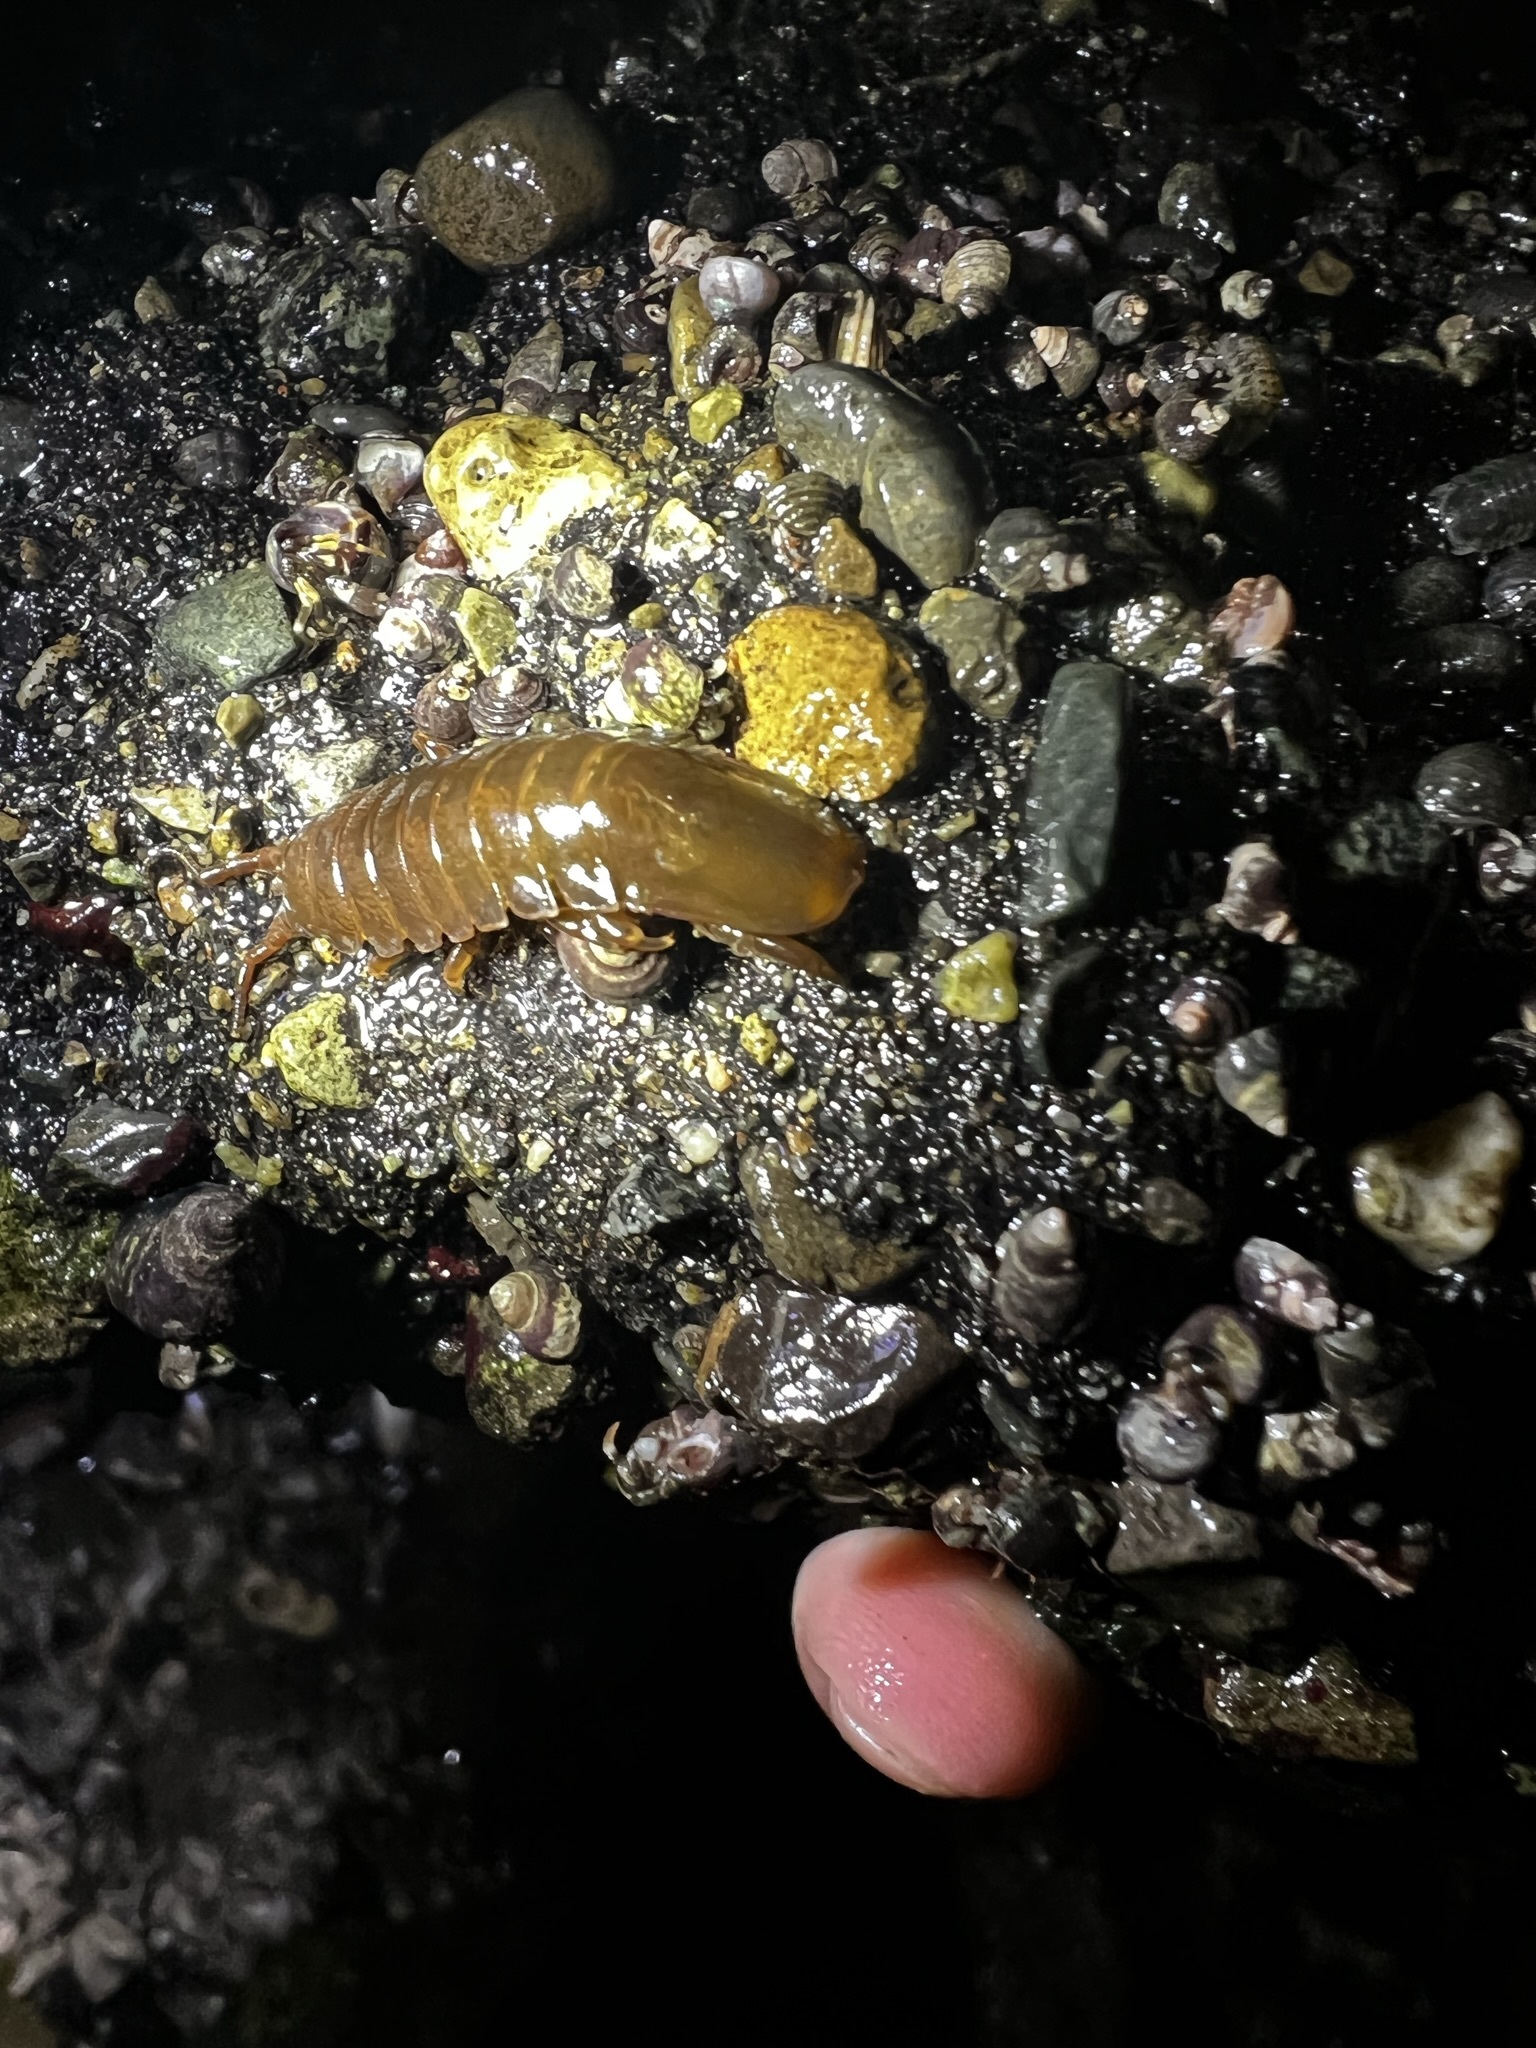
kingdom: Animalia
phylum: Arthropoda
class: Malacostraca
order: Isopoda
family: Idoteidae
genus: Pentidotea
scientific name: Pentidotea wosnesenskii
